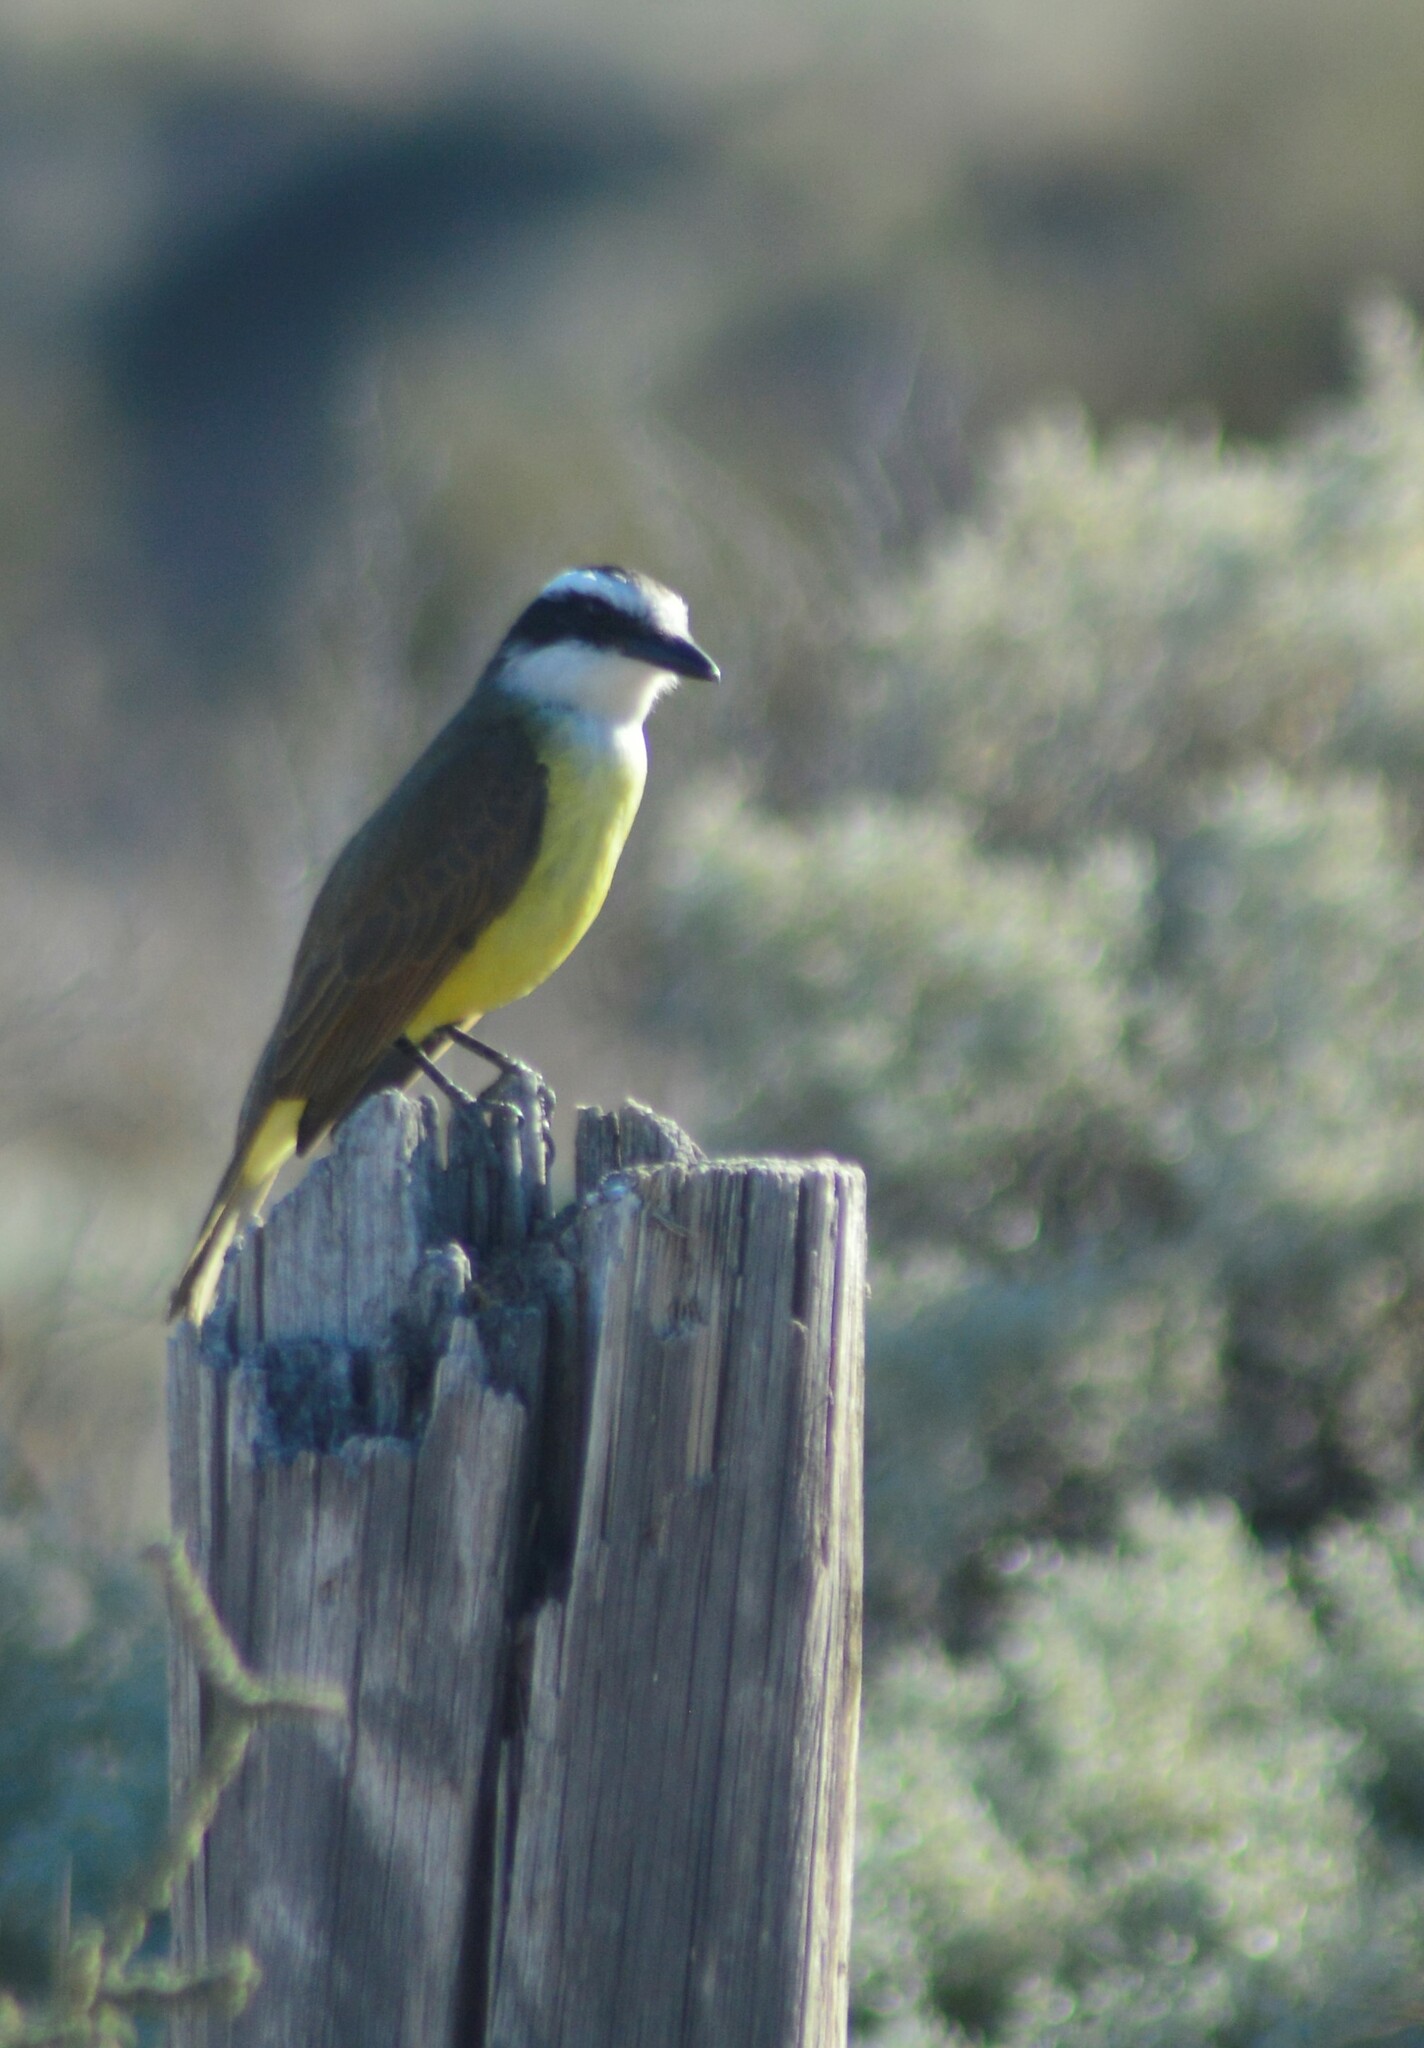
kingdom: Animalia
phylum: Chordata
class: Aves
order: Passeriformes
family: Tyrannidae
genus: Pitangus
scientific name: Pitangus sulphuratus
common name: Great kiskadee
